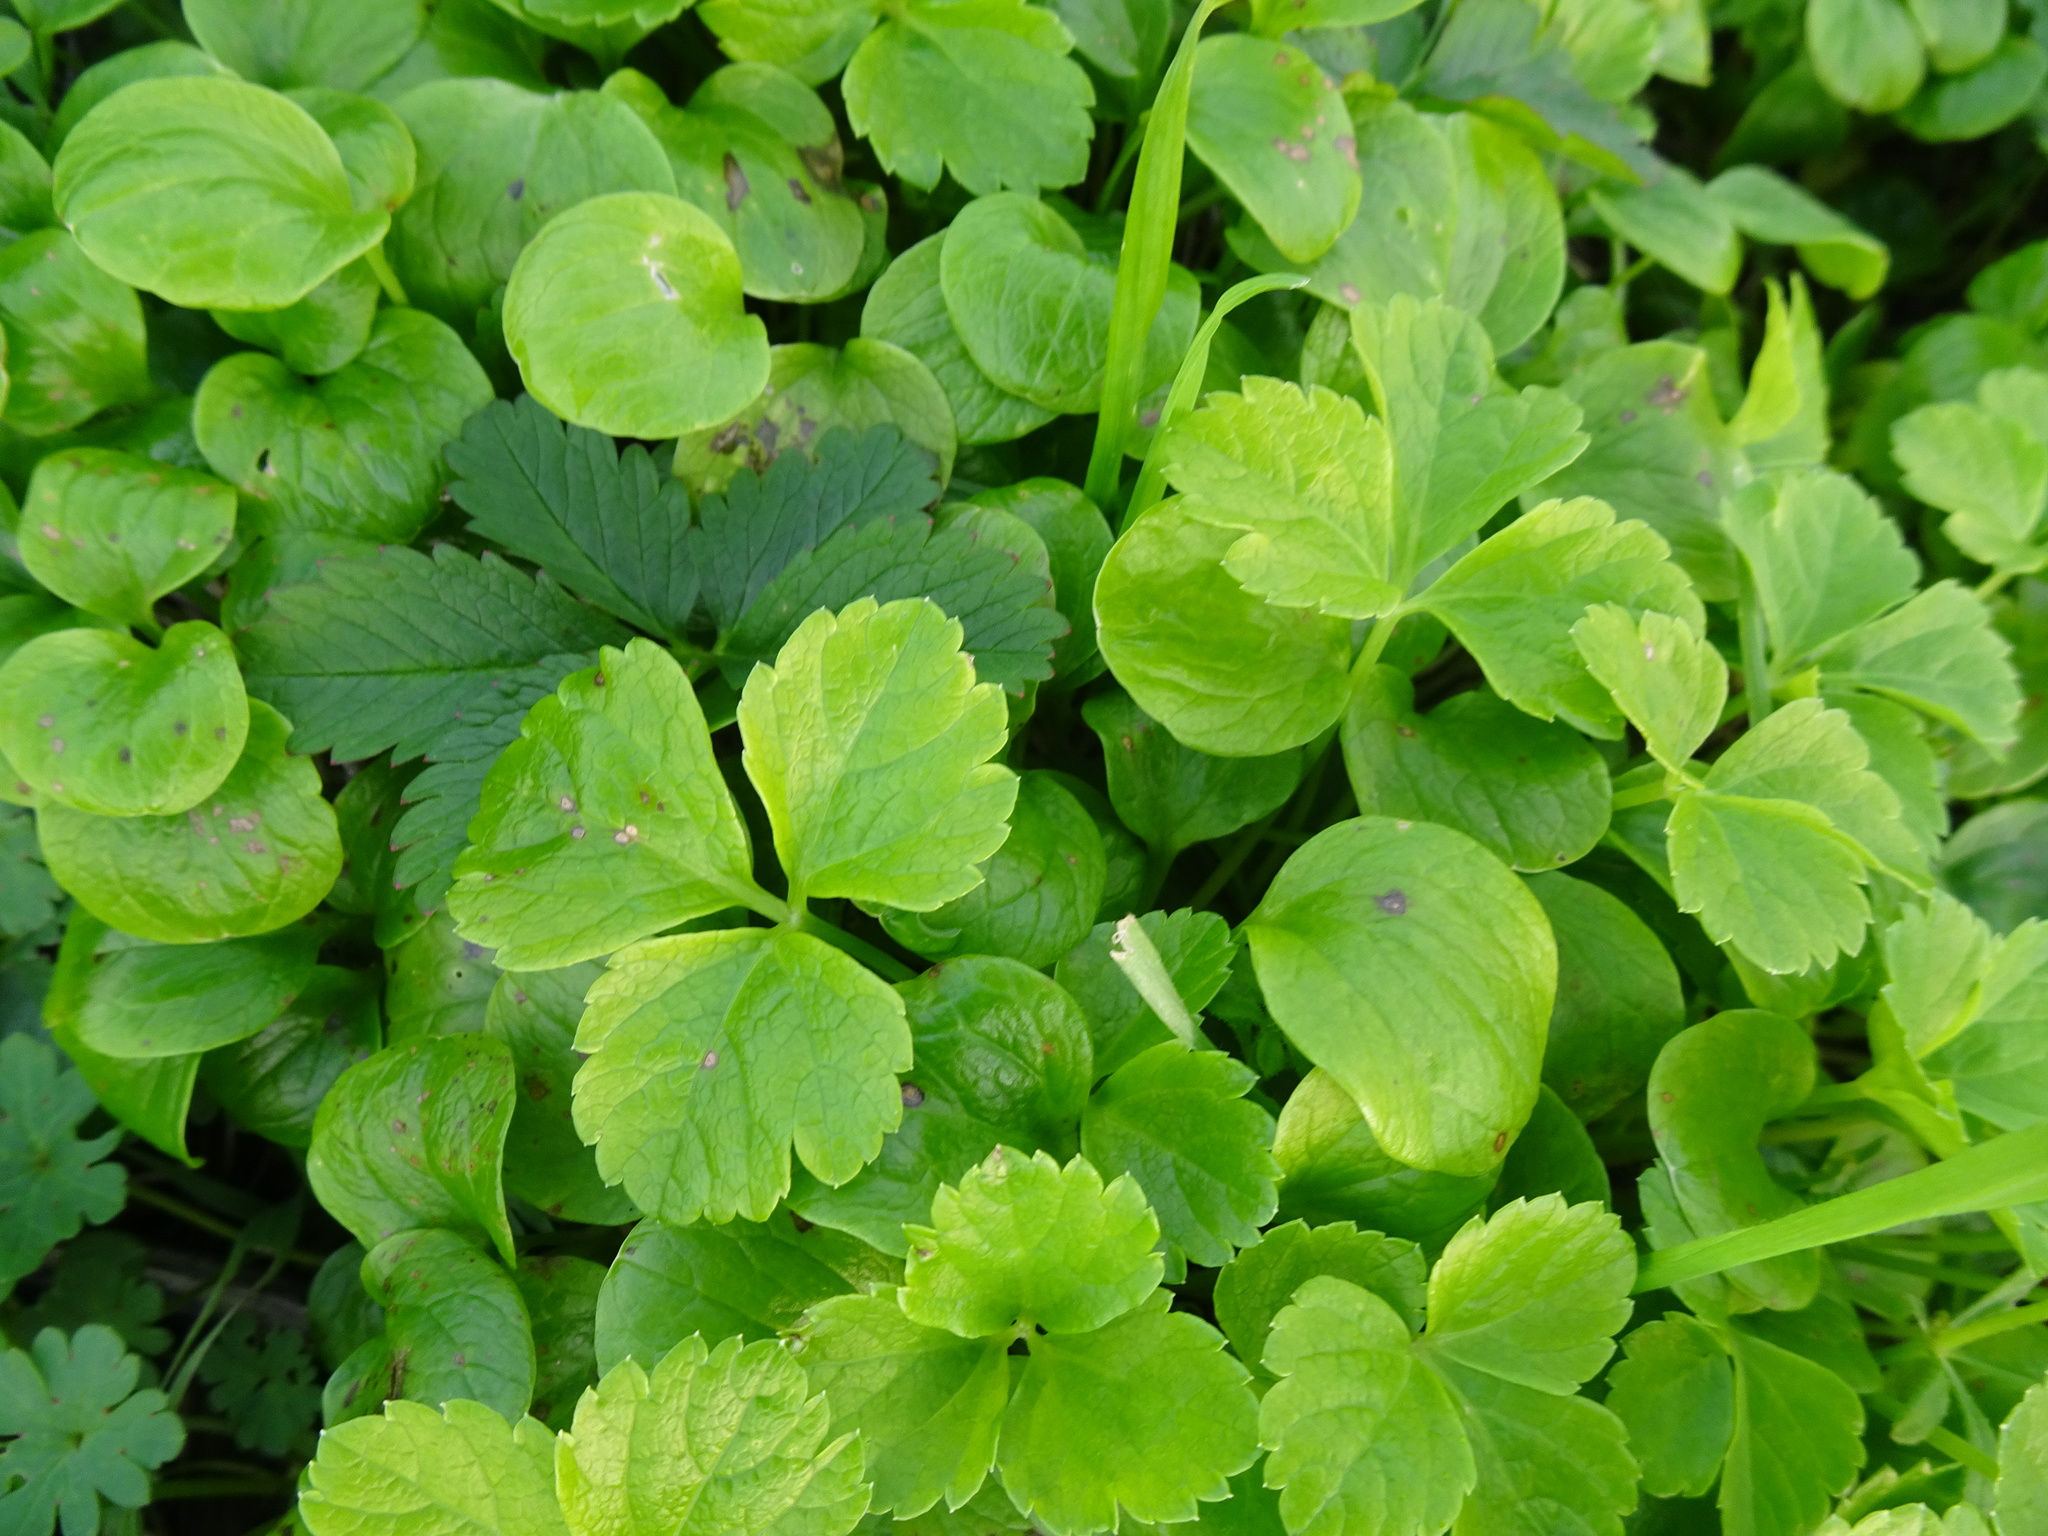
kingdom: Plantae
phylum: Tracheophyta
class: Magnoliopsida
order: Apiales
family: Apiaceae
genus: Smyrnium
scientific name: Smyrnium olusatrum
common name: Alexanders
